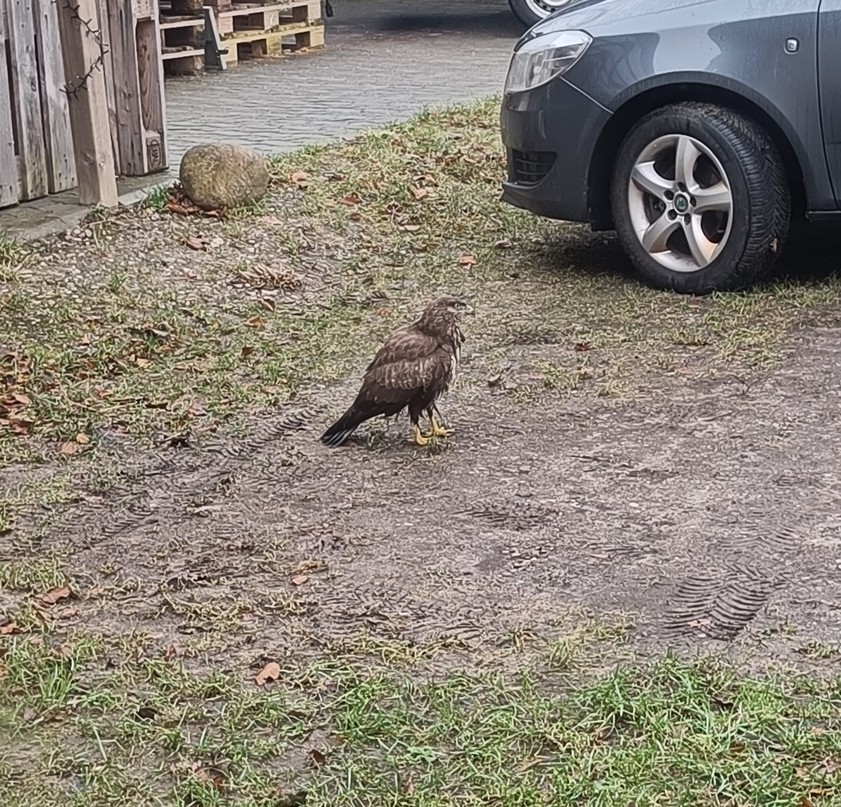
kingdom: Animalia
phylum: Chordata
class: Aves
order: Accipitriformes
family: Accipitridae
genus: Buteo
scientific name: Buteo buteo
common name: Common buzzard
